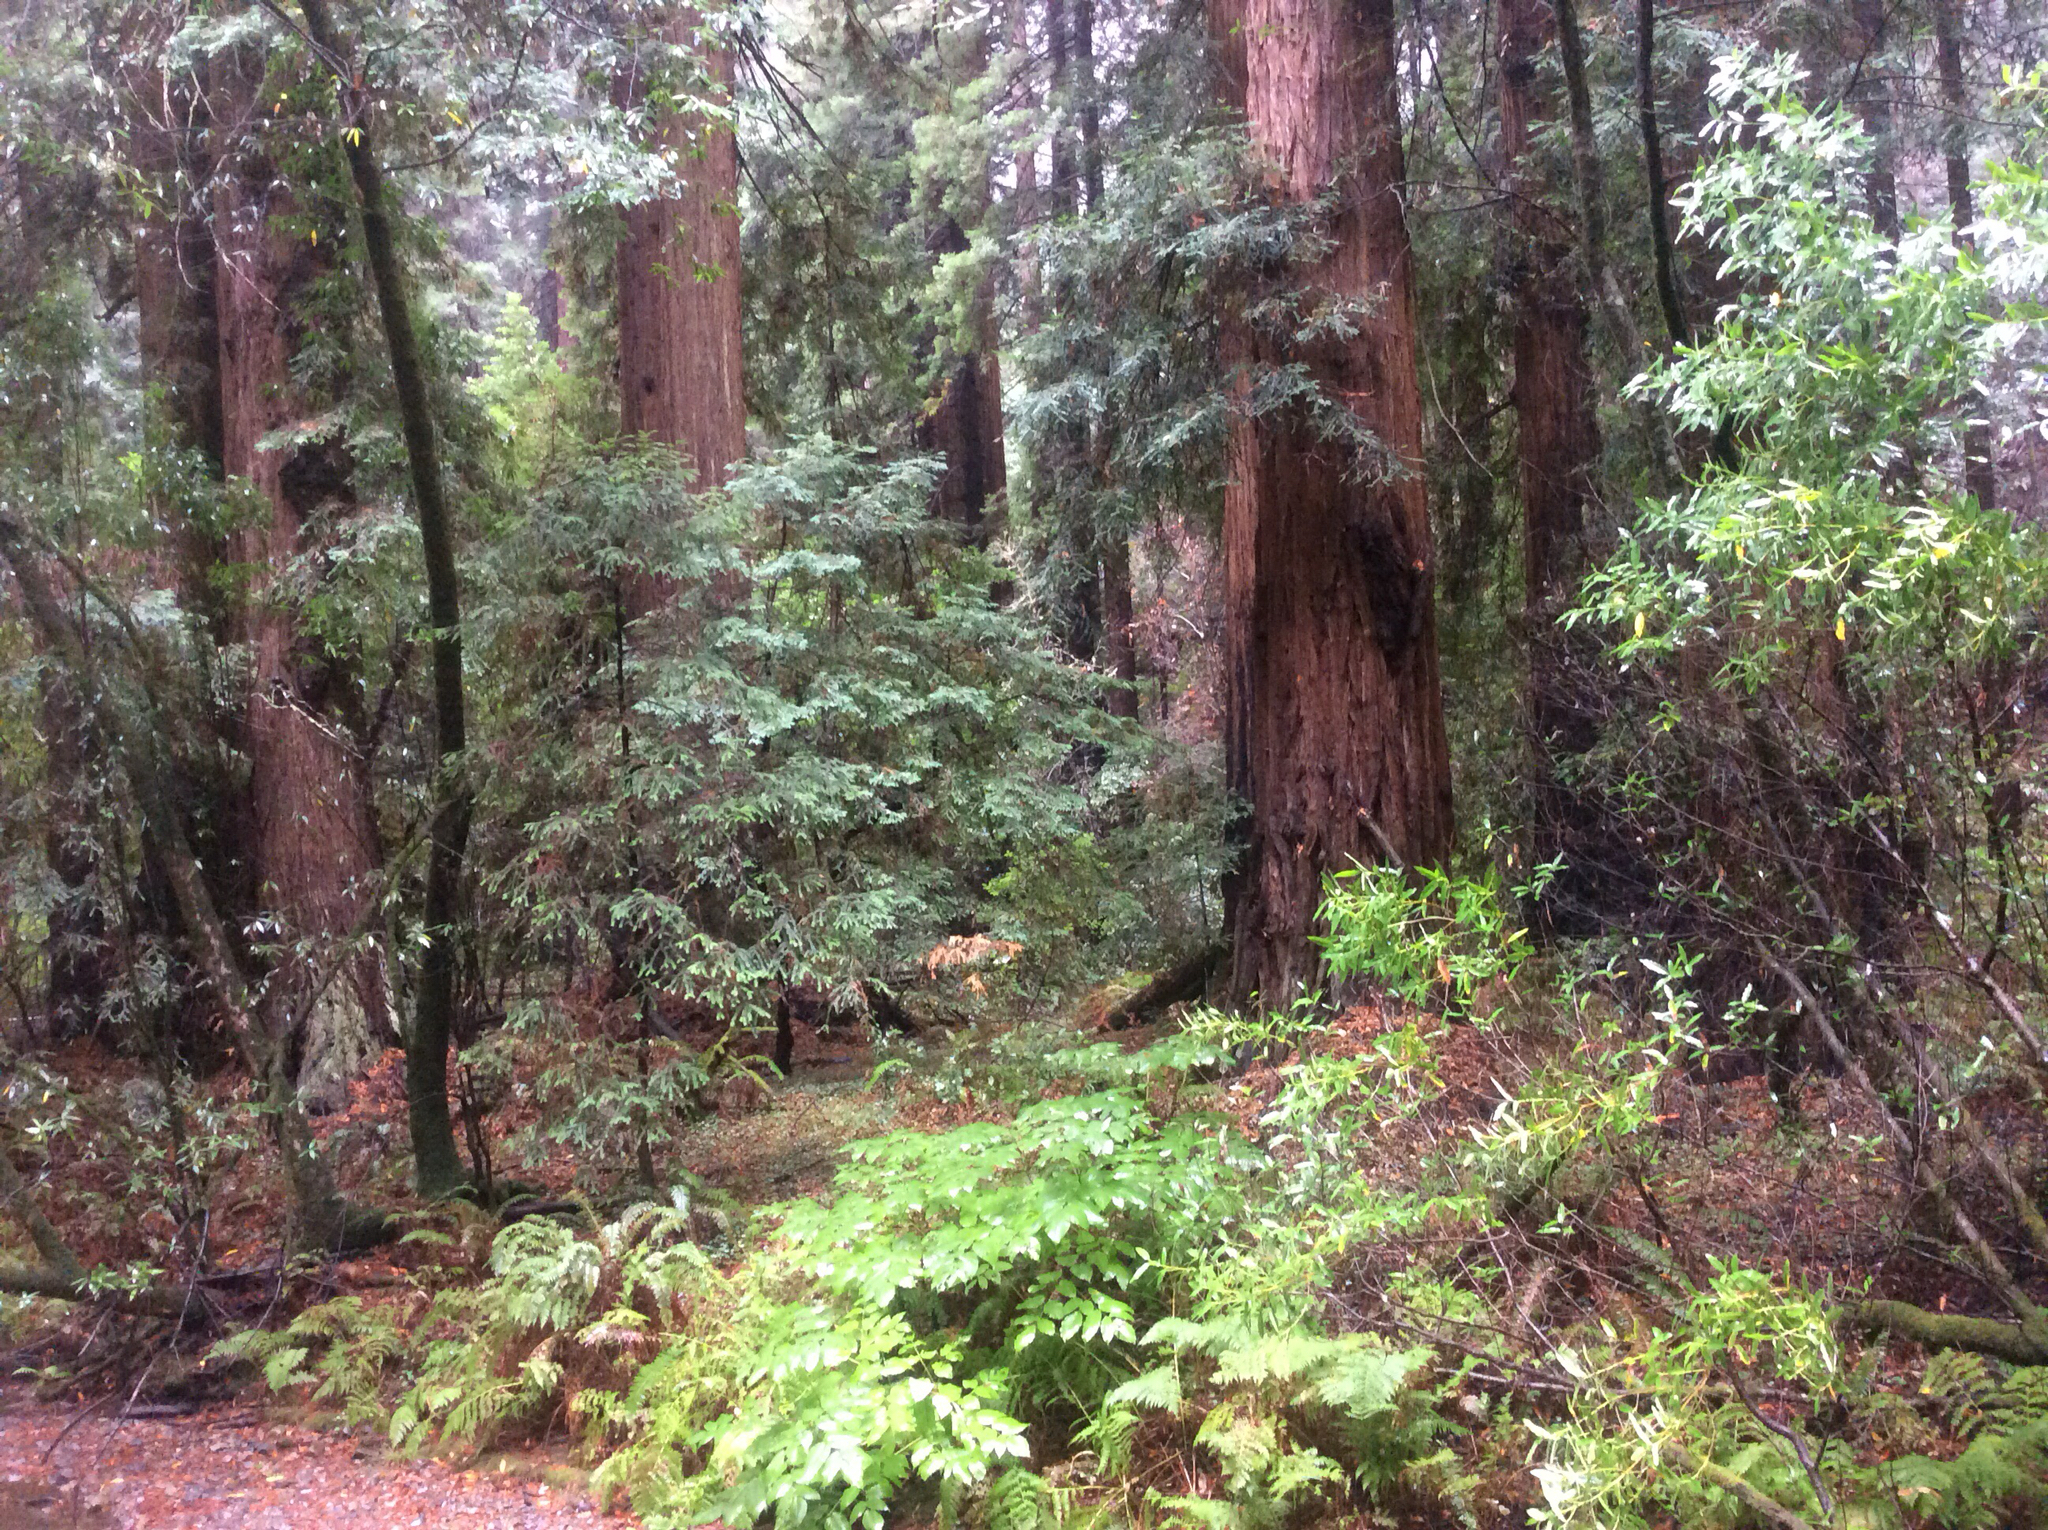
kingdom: Plantae
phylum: Tracheophyta
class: Pinopsida
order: Pinales
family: Cupressaceae
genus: Sequoia
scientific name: Sequoia sempervirens
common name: Coast redwood
